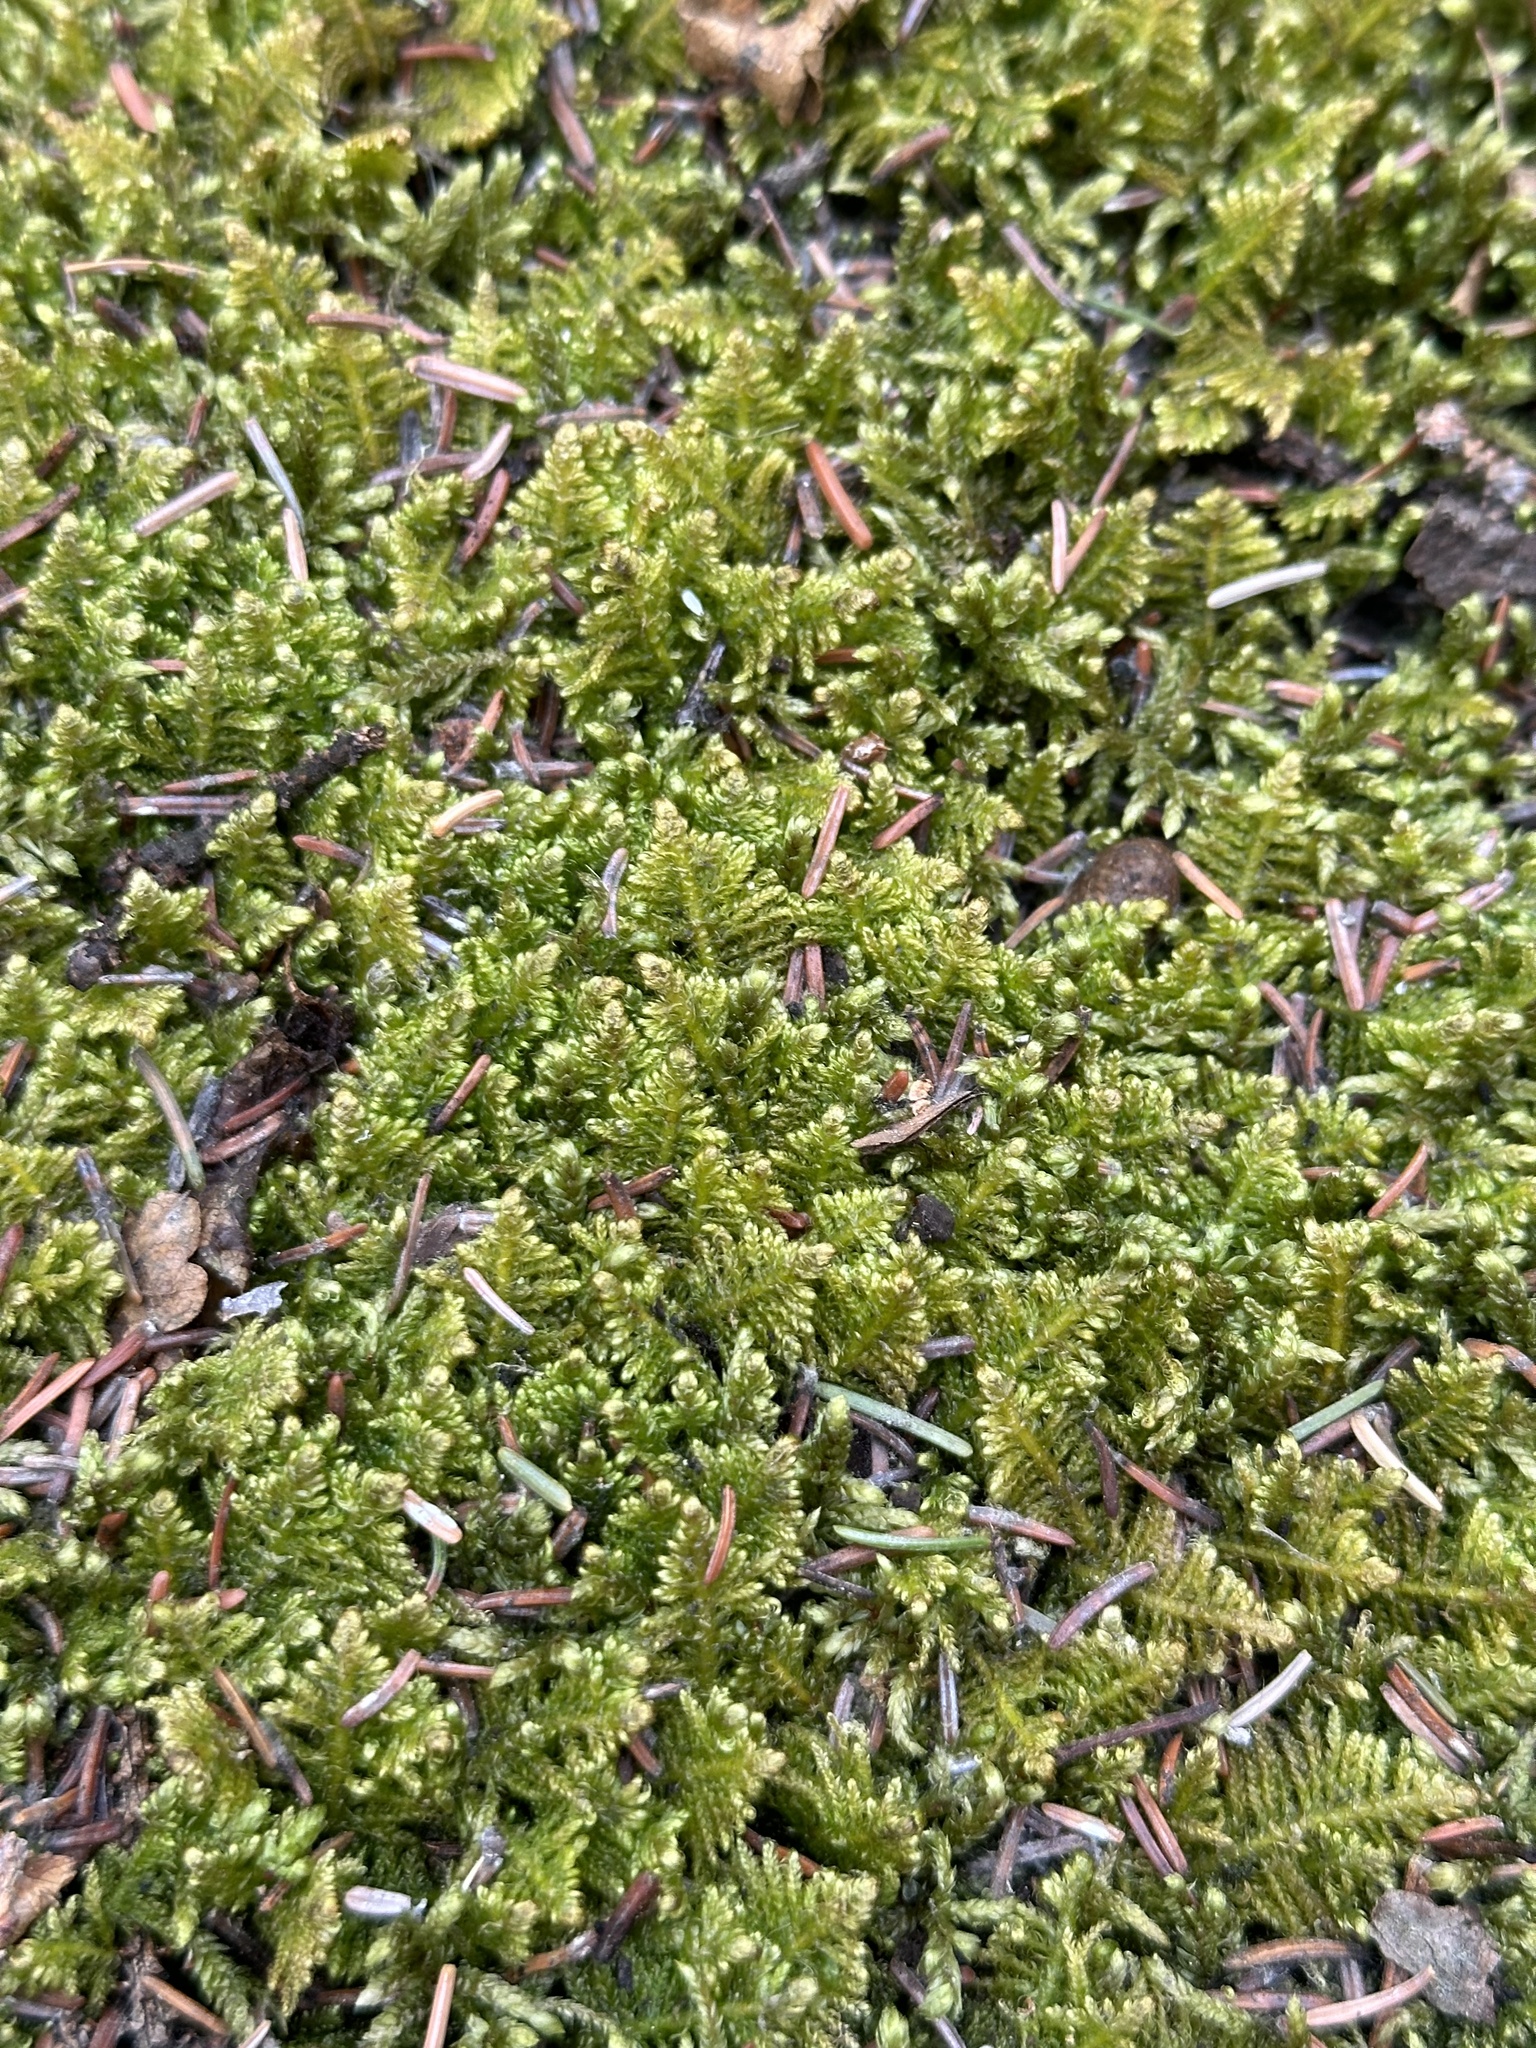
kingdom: Plantae
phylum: Bryophyta
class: Bryopsida
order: Hypnales
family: Pylaisiaceae
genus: Ptilium
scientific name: Ptilium crista-castrensis
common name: Knight's plume moss
